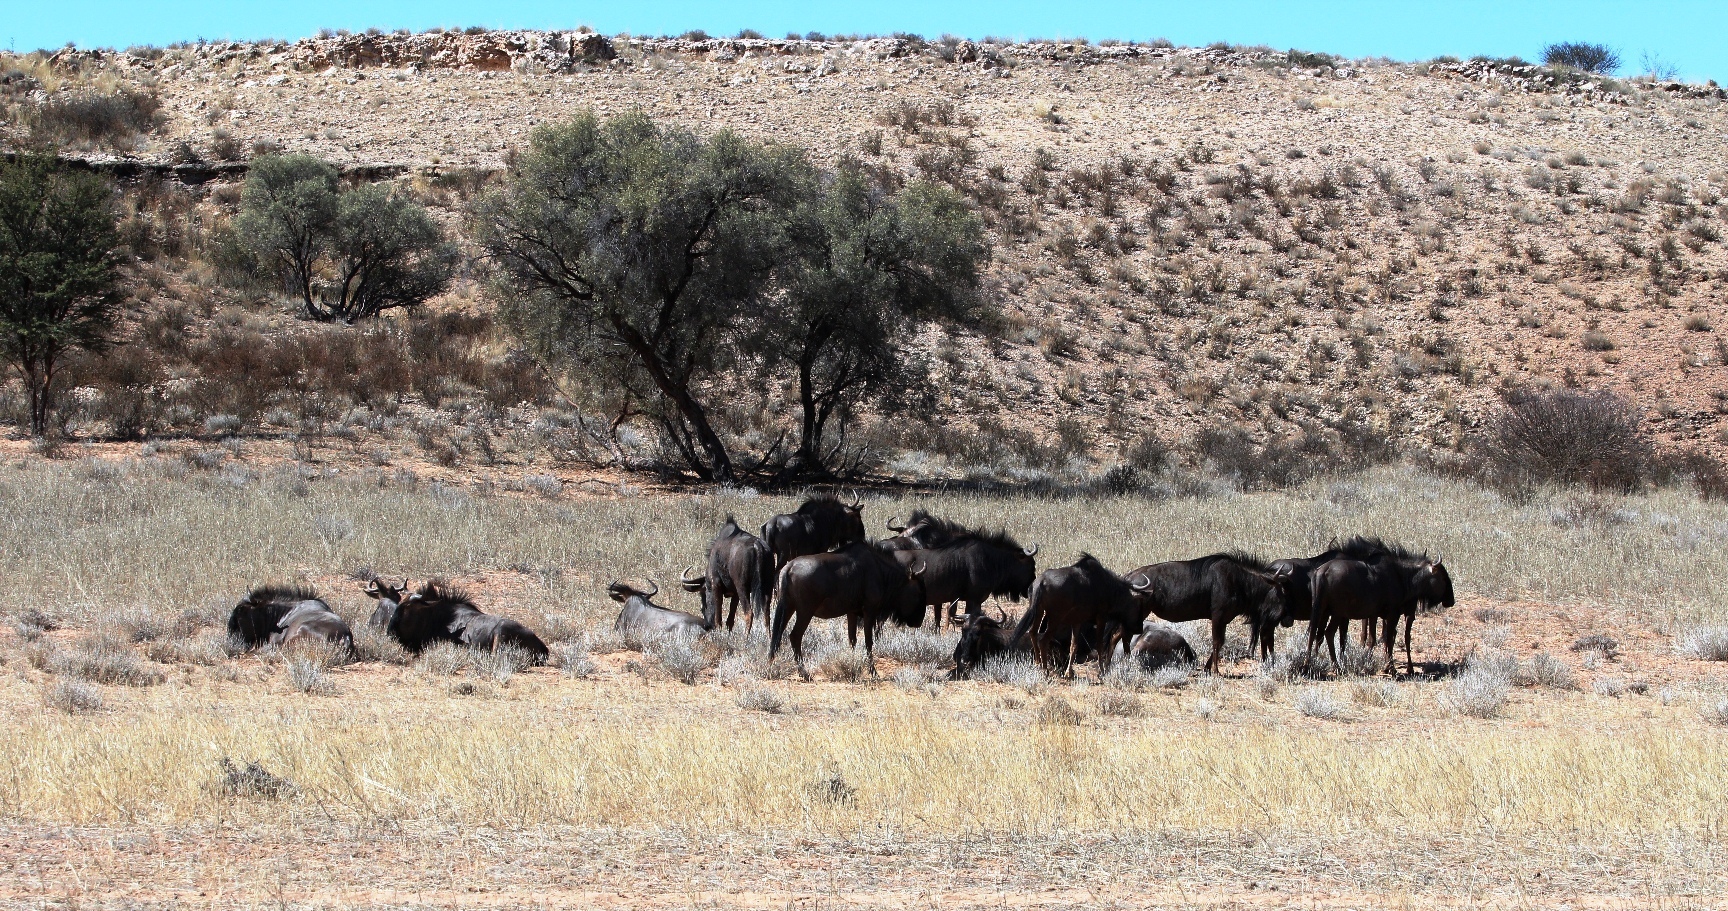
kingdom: Animalia
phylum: Chordata
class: Mammalia
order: Artiodactyla
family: Bovidae
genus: Connochaetes
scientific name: Connochaetes taurinus
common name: Blue wildebeest
